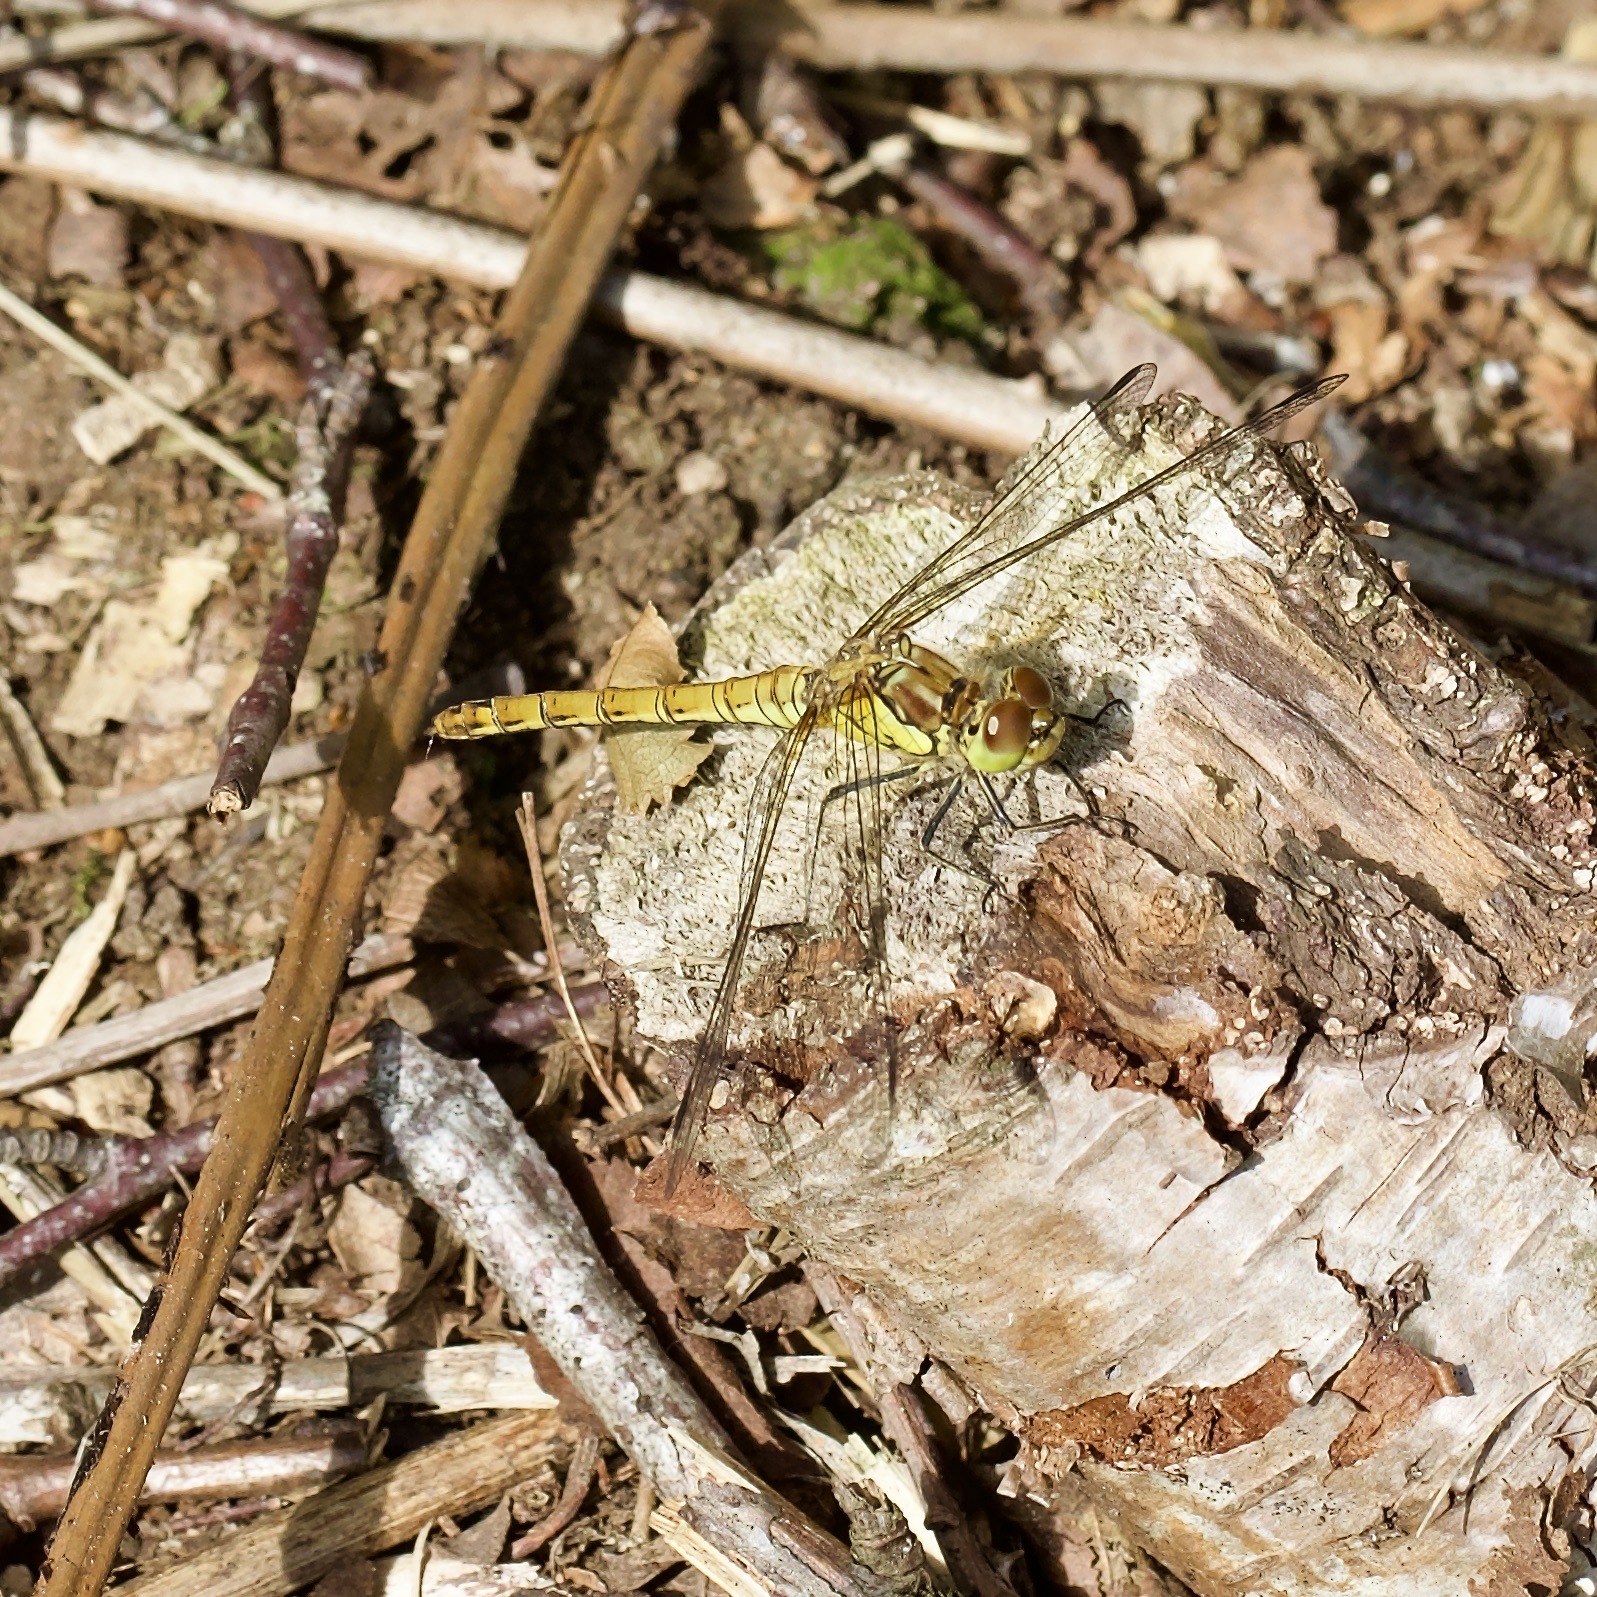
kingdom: Animalia
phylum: Arthropoda
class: Insecta
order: Odonata
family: Libellulidae
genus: Sympetrum
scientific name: Sympetrum striolatum
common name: Common darter
